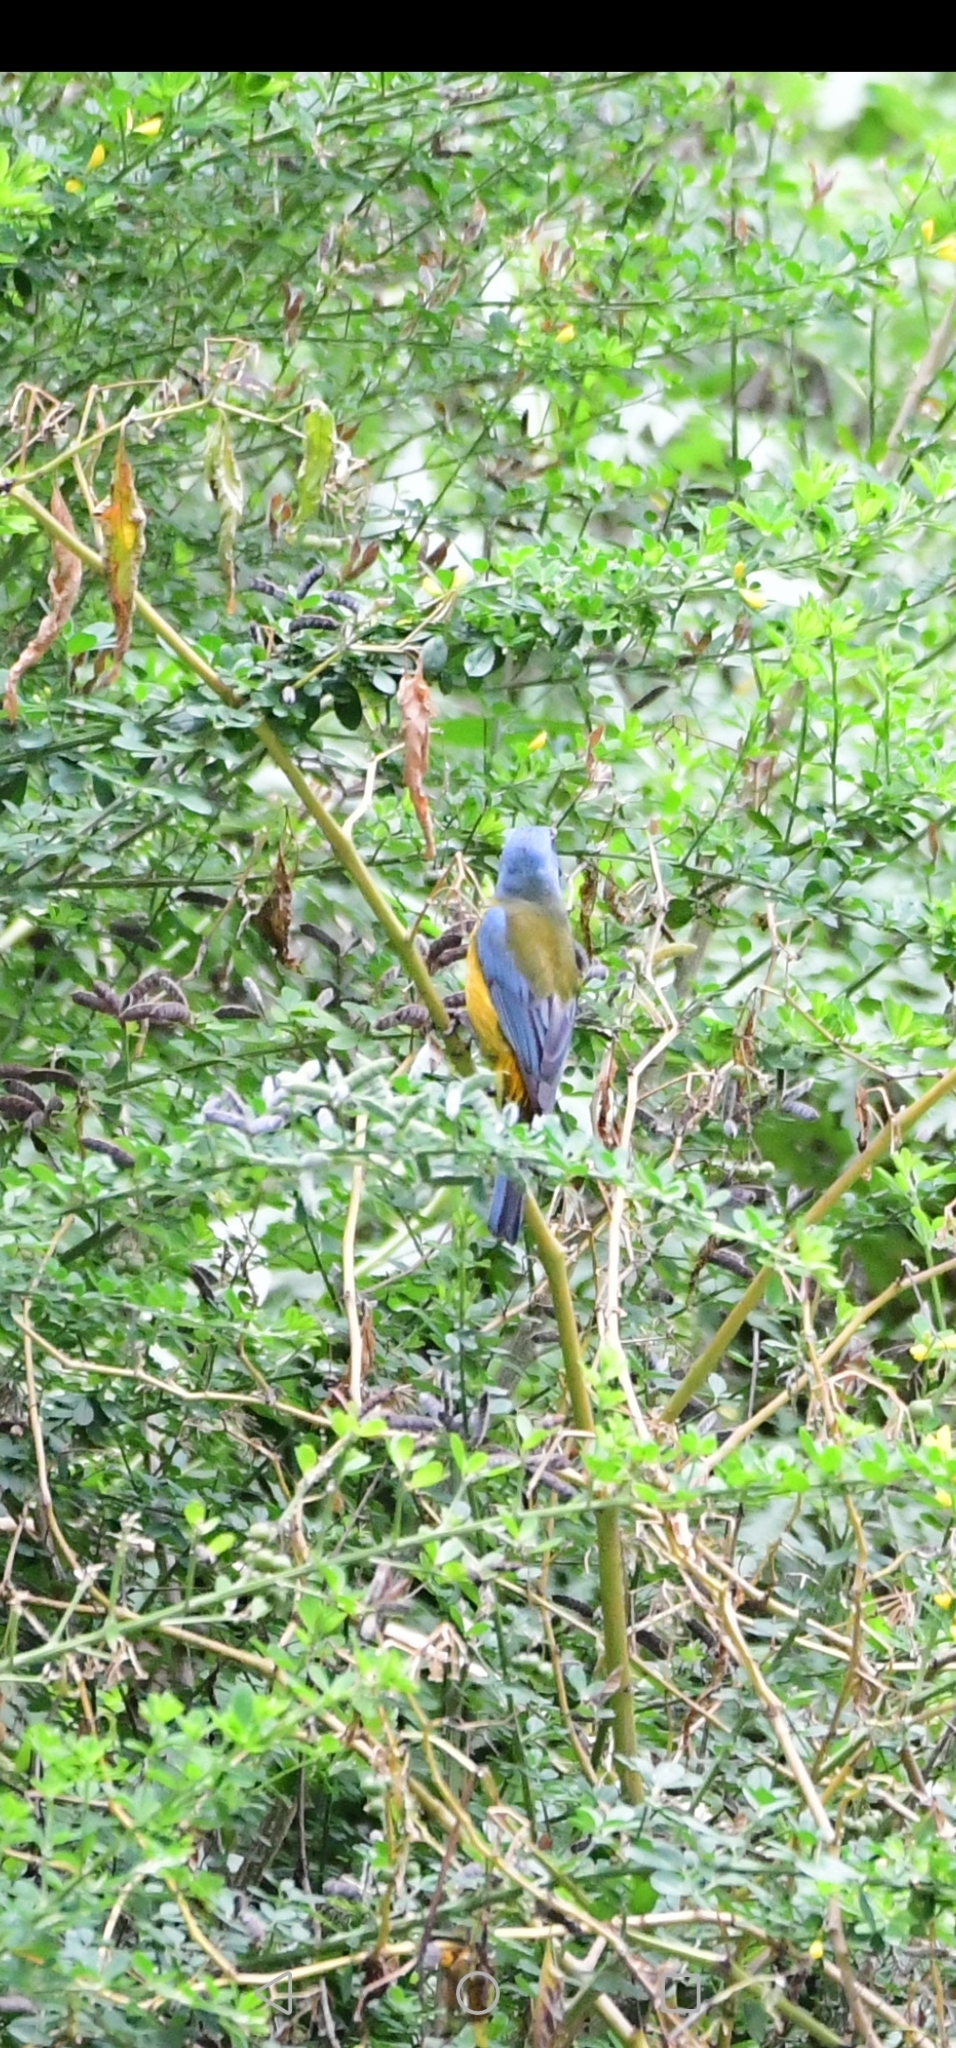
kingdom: Animalia
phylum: Chordata
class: Aves
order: Passeriformes
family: Thraupidae
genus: Rauenia
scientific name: Rauenia bonariensis
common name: Blue-and-yellow tanager
